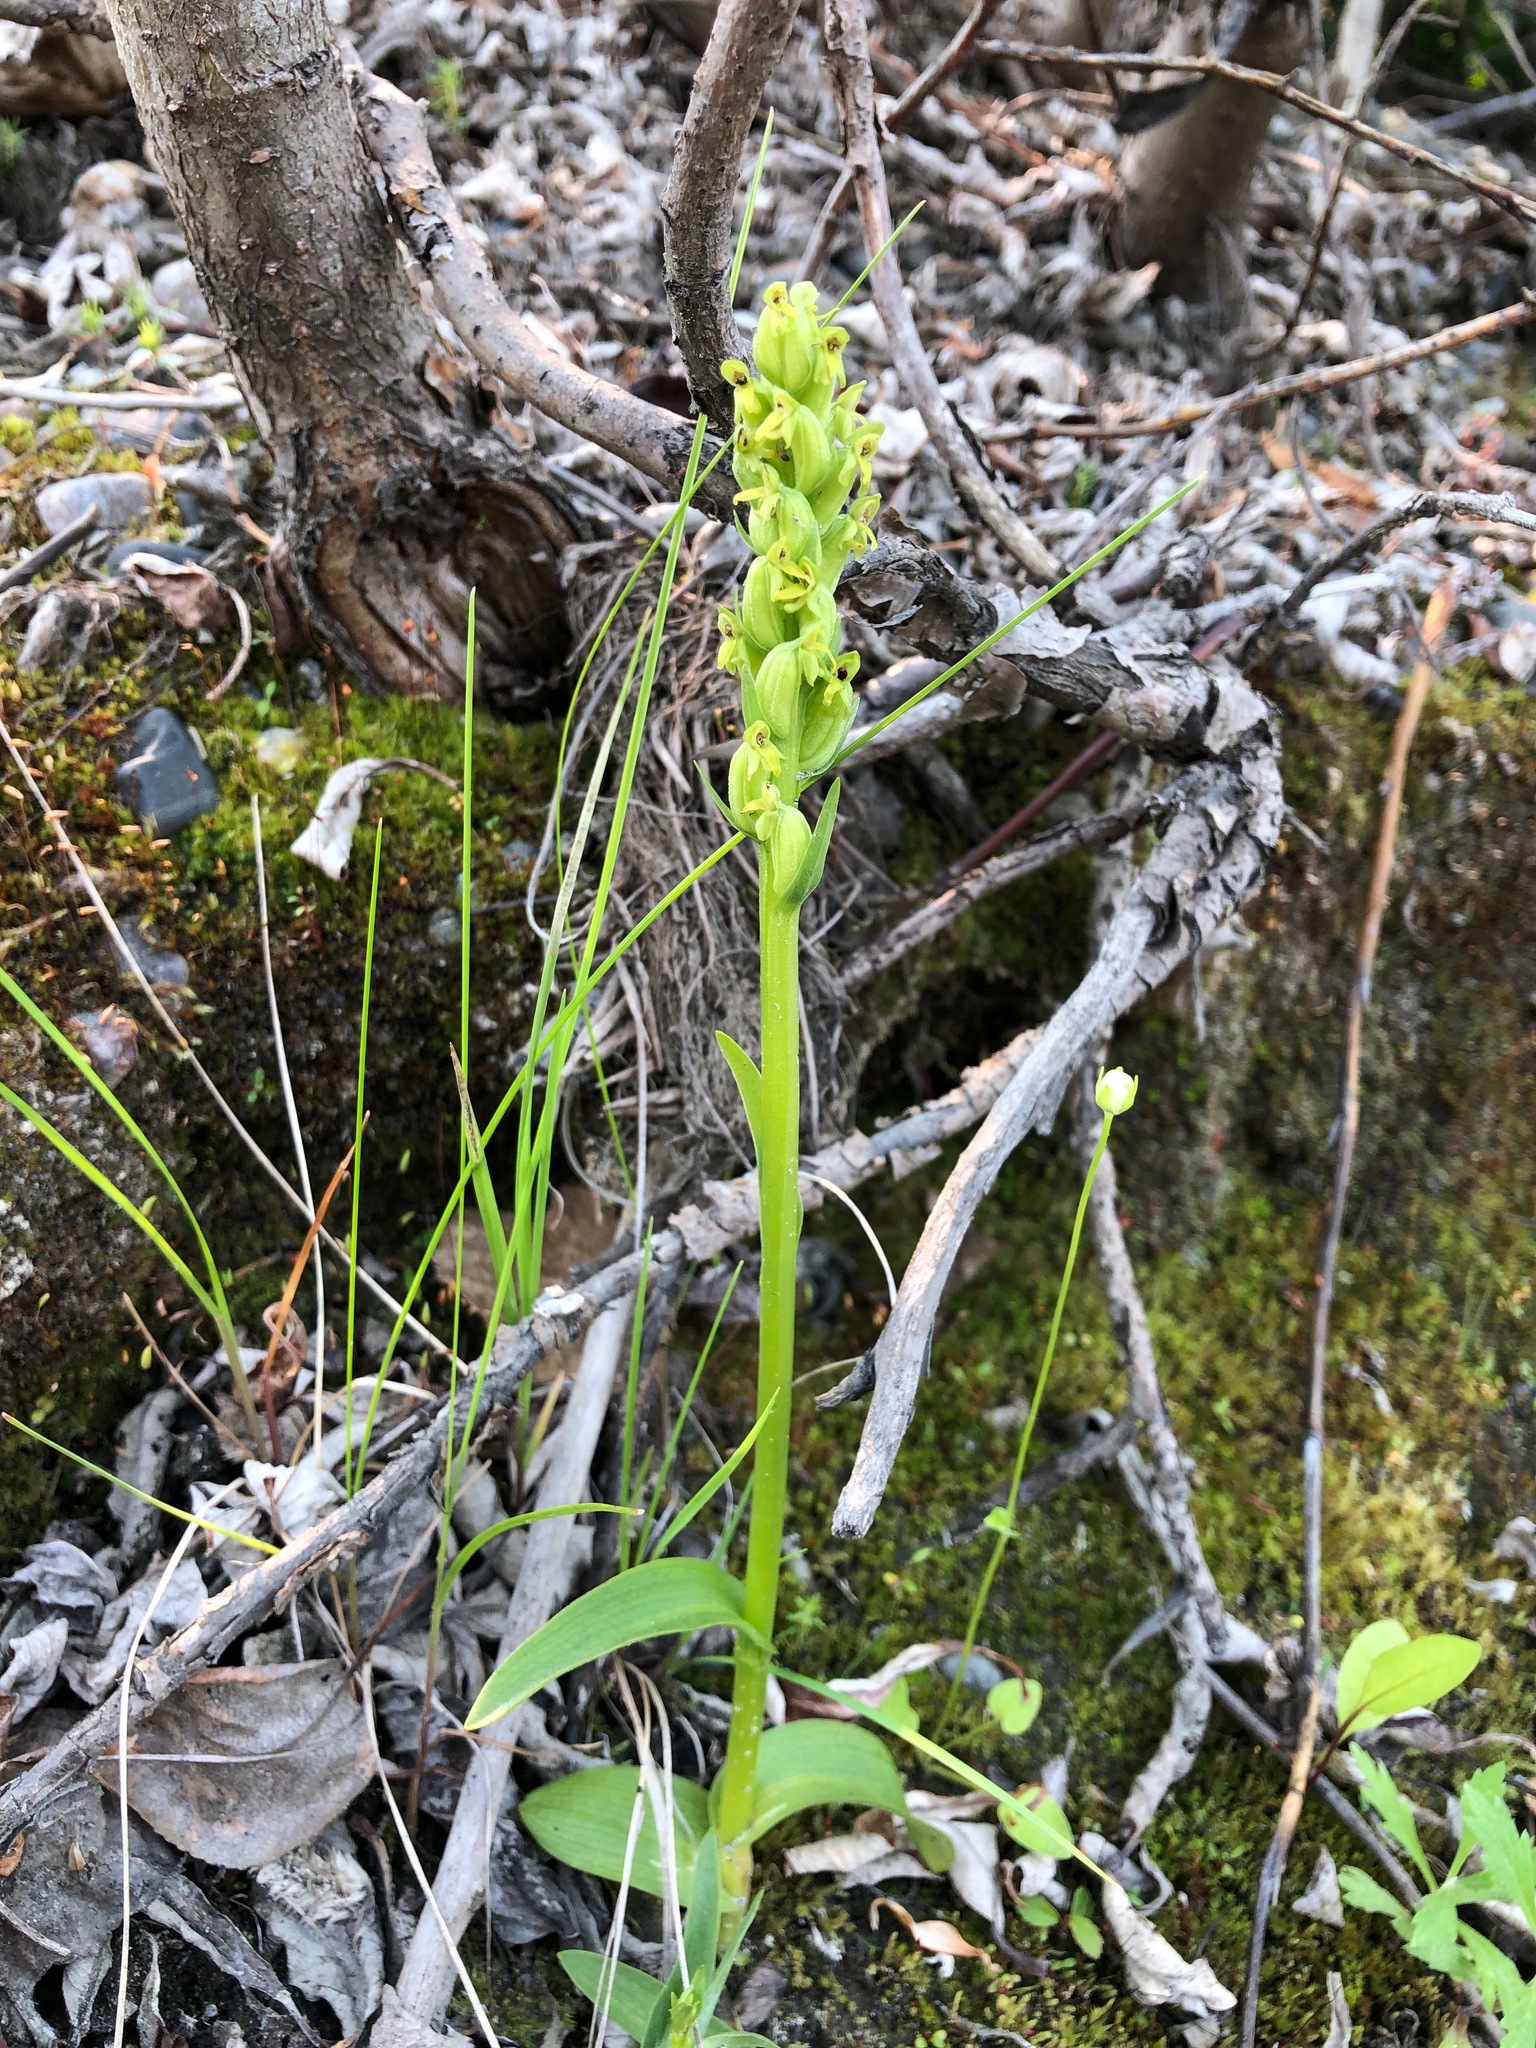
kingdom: Plantae
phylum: Tracheophyta
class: Liliopsida
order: Asparagales
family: Orchidaceae
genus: Platanthera
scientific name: Platanthera aquilonis
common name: Northern green orchid
